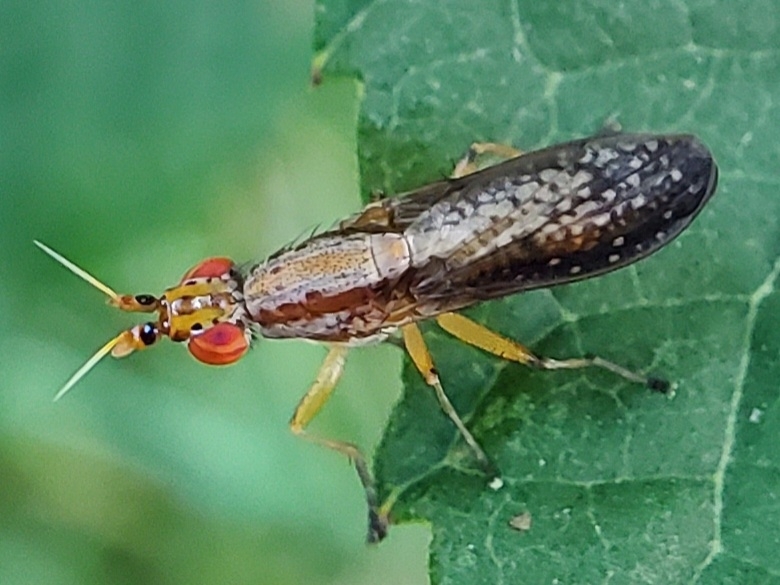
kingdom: Animalia
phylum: Arthropoda
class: Insecta
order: Diptera
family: Sciomyzidae
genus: Limnia
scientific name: Limnia shannoni
